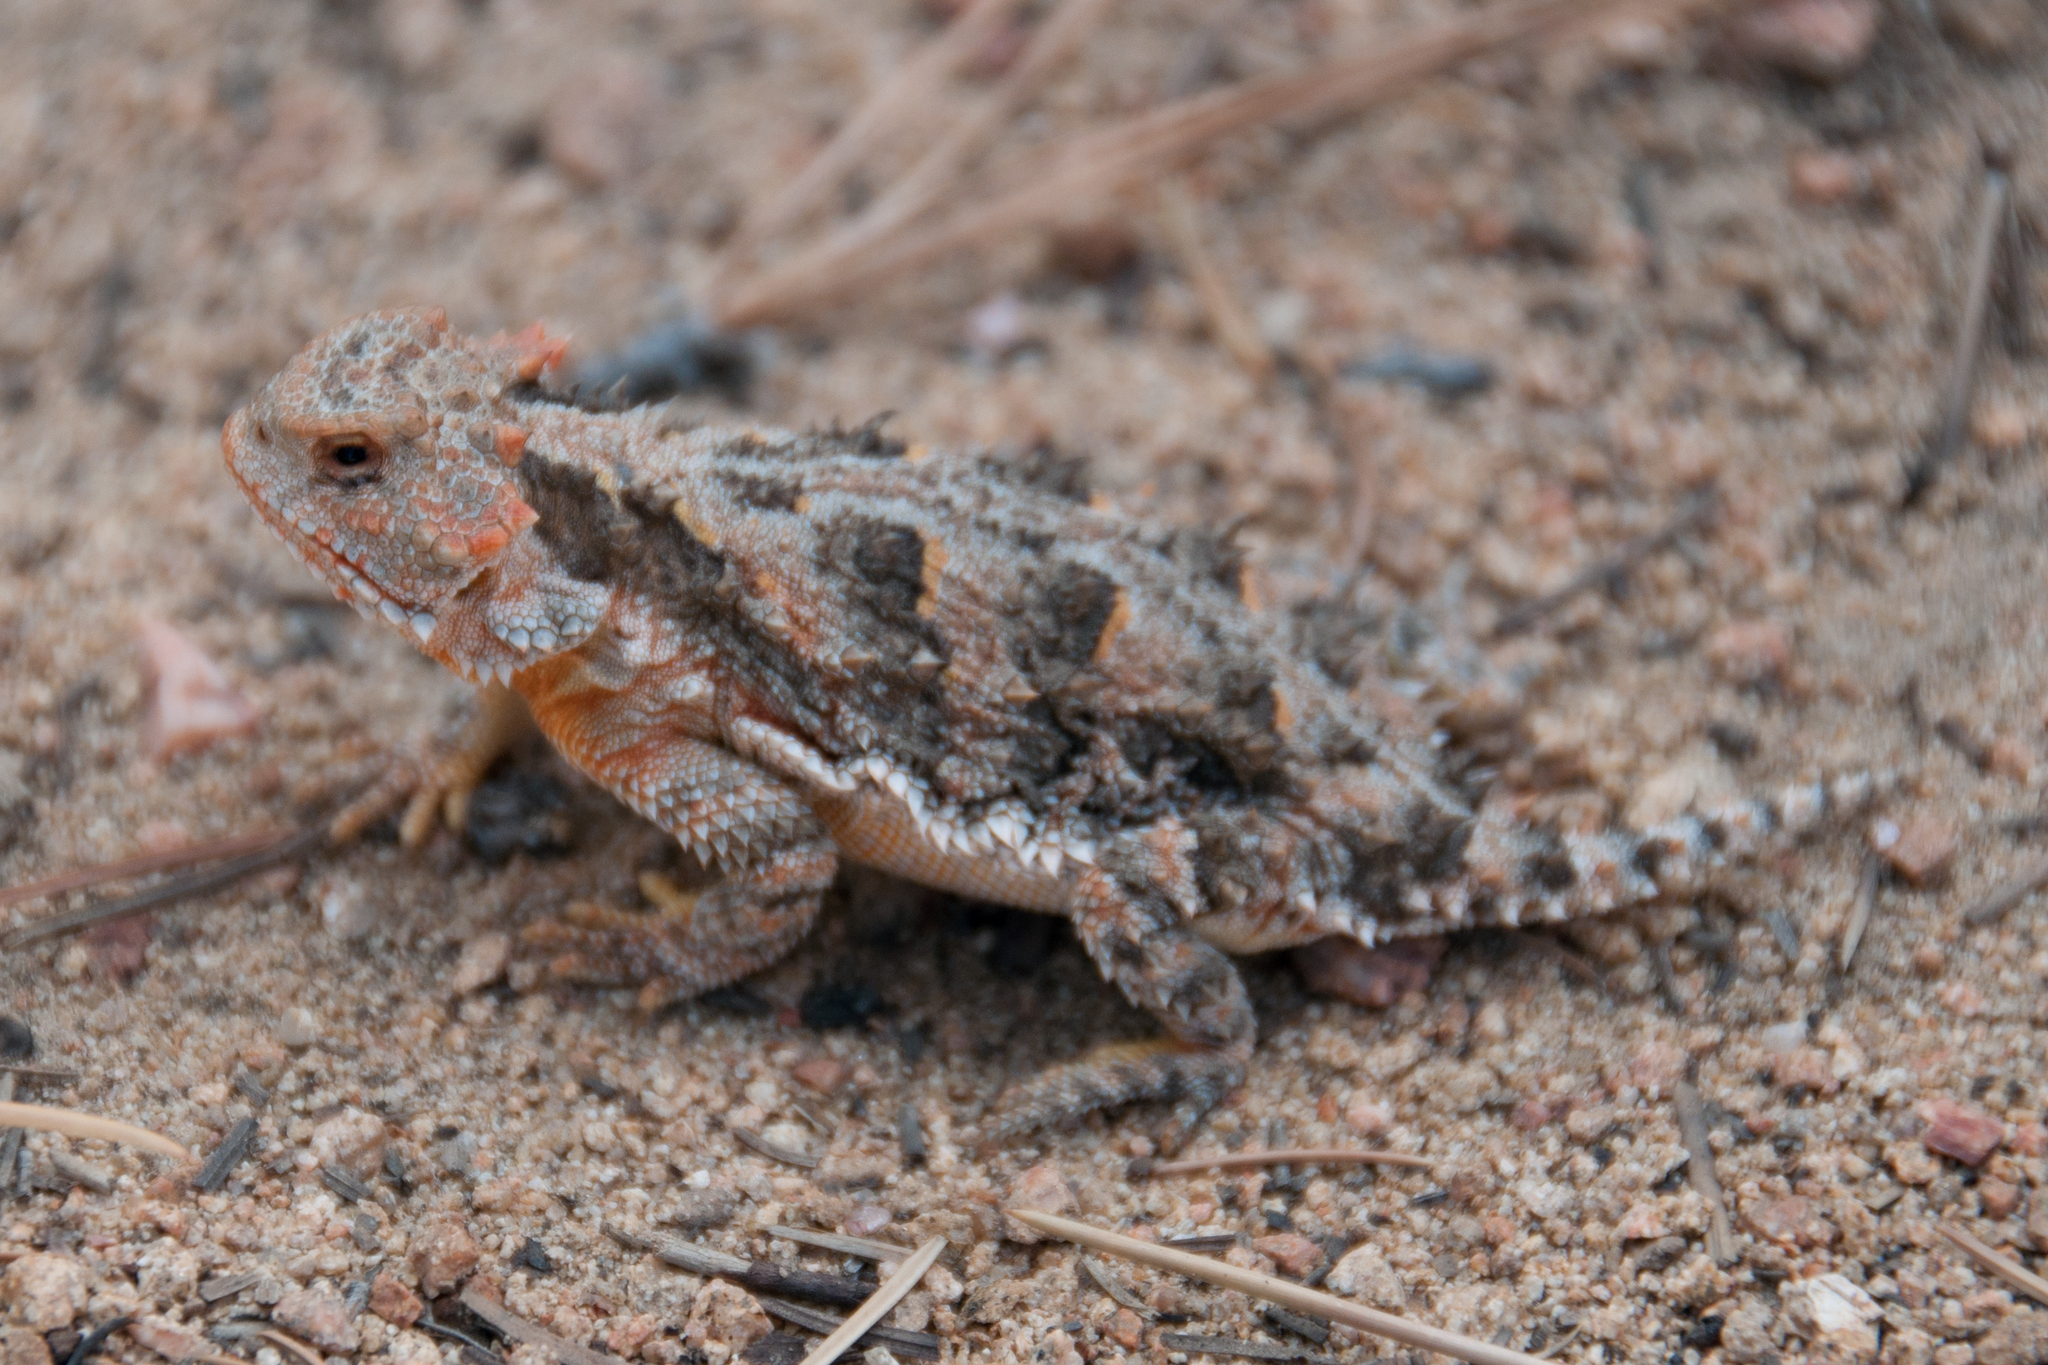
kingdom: Animalia
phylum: Chordata
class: Squamata
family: Phrynosomatidae
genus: Phrynosoma
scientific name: Phrynosoma hernandesi
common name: Greater short-horned lizard
